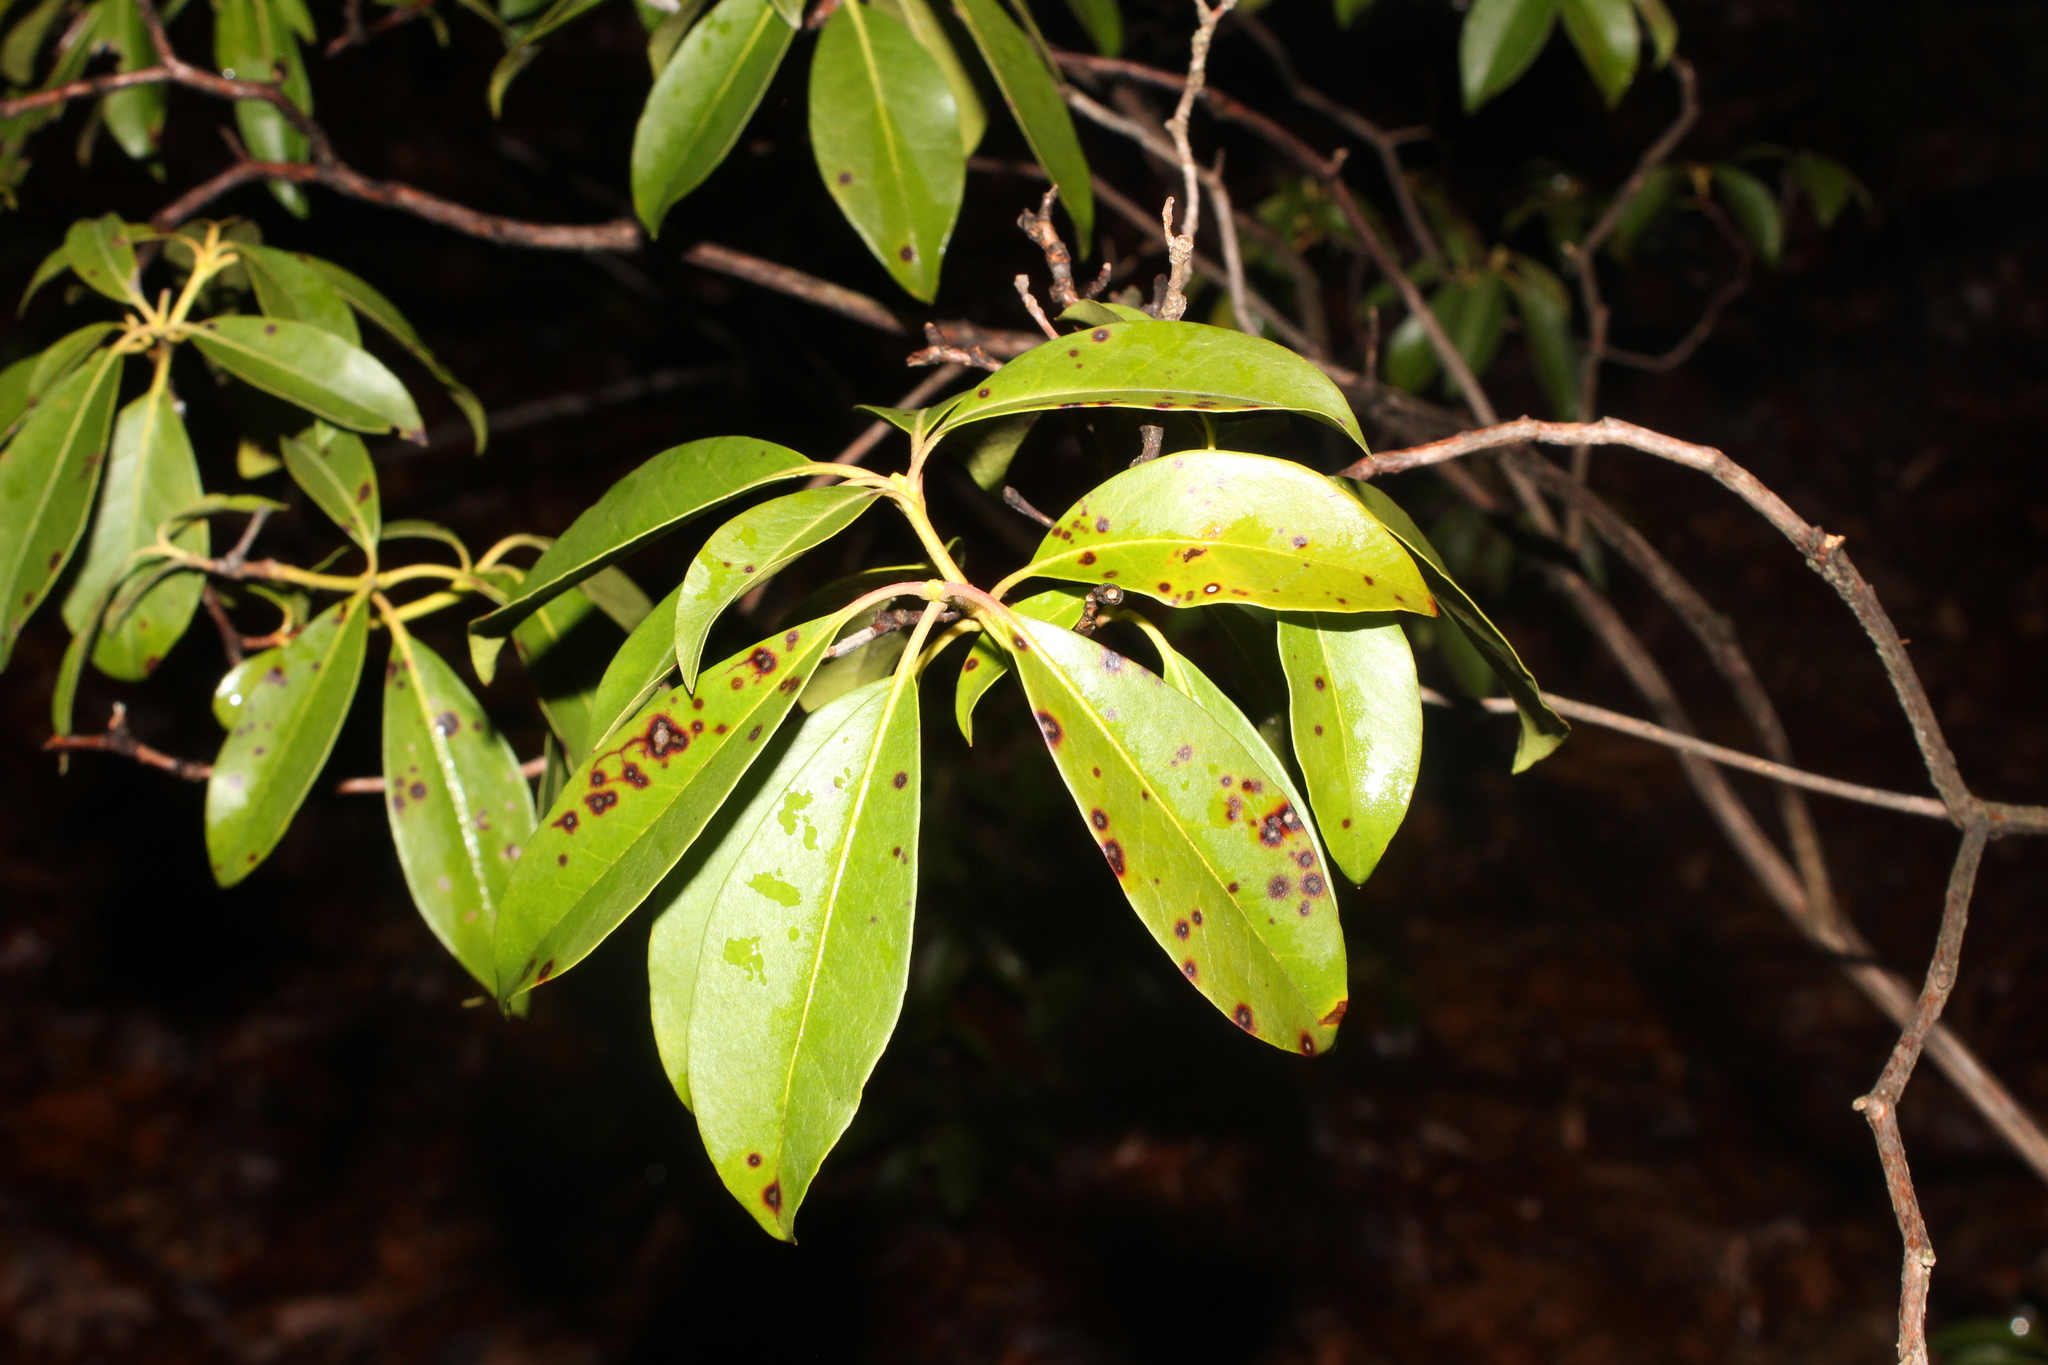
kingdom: Plantae
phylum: Tracheophyta
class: Magnoliopsida
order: Ericales
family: Ericaceae
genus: Kalmia
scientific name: Kalmia latifolia
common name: Mountain-laurel
